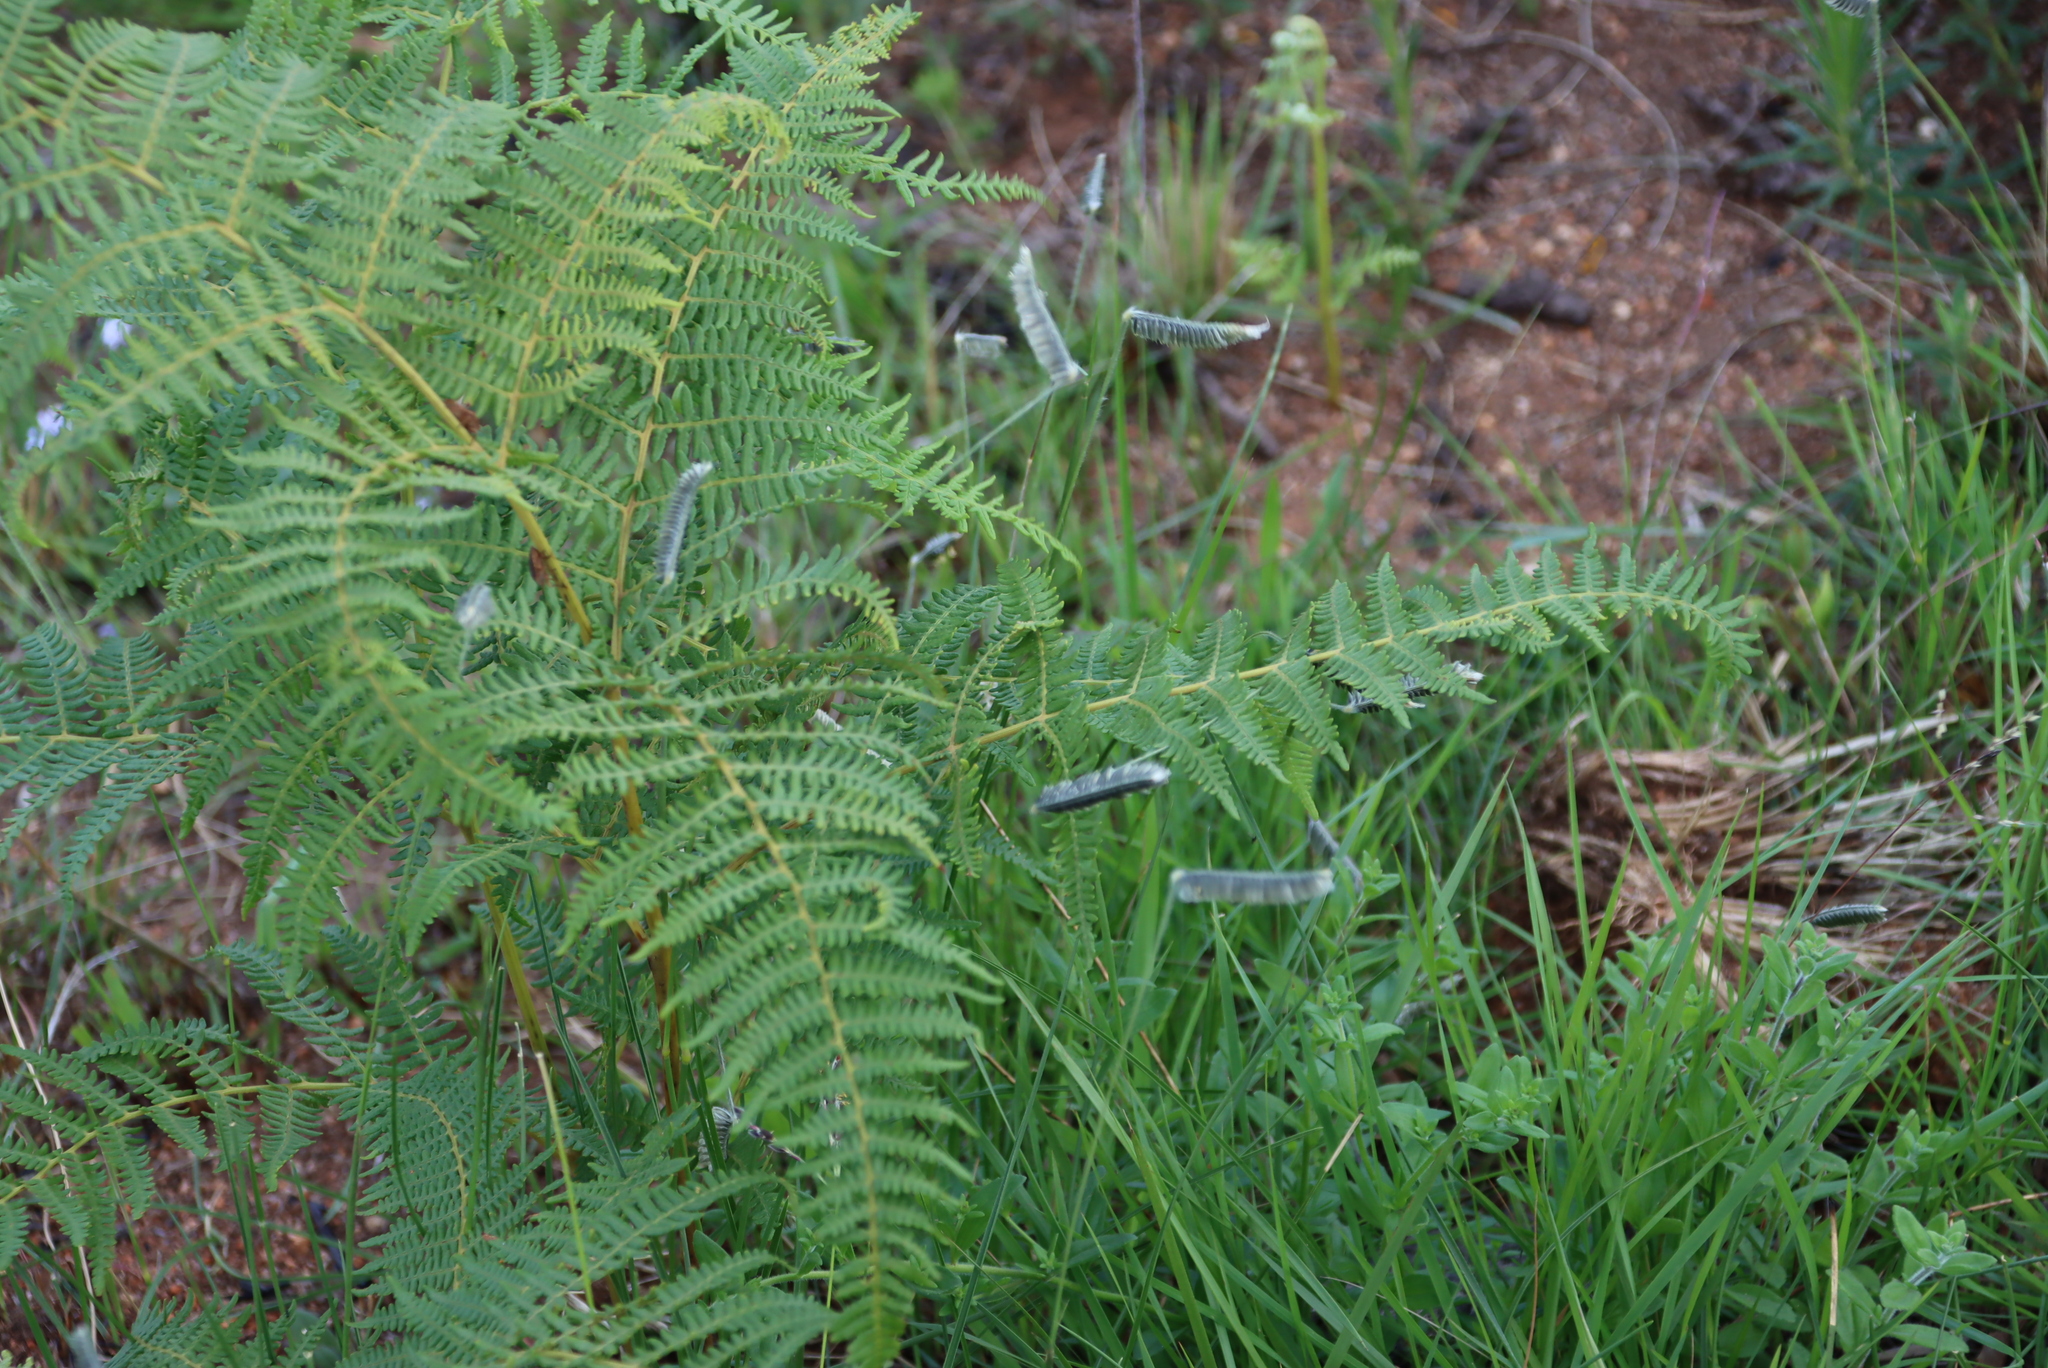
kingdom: Plantae
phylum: Tracheophyta
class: Polypodiopsida
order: Polypodiales
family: Dennstaedtiaceae
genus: Pteridium
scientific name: Pteridium aquilinum
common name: Bracken
